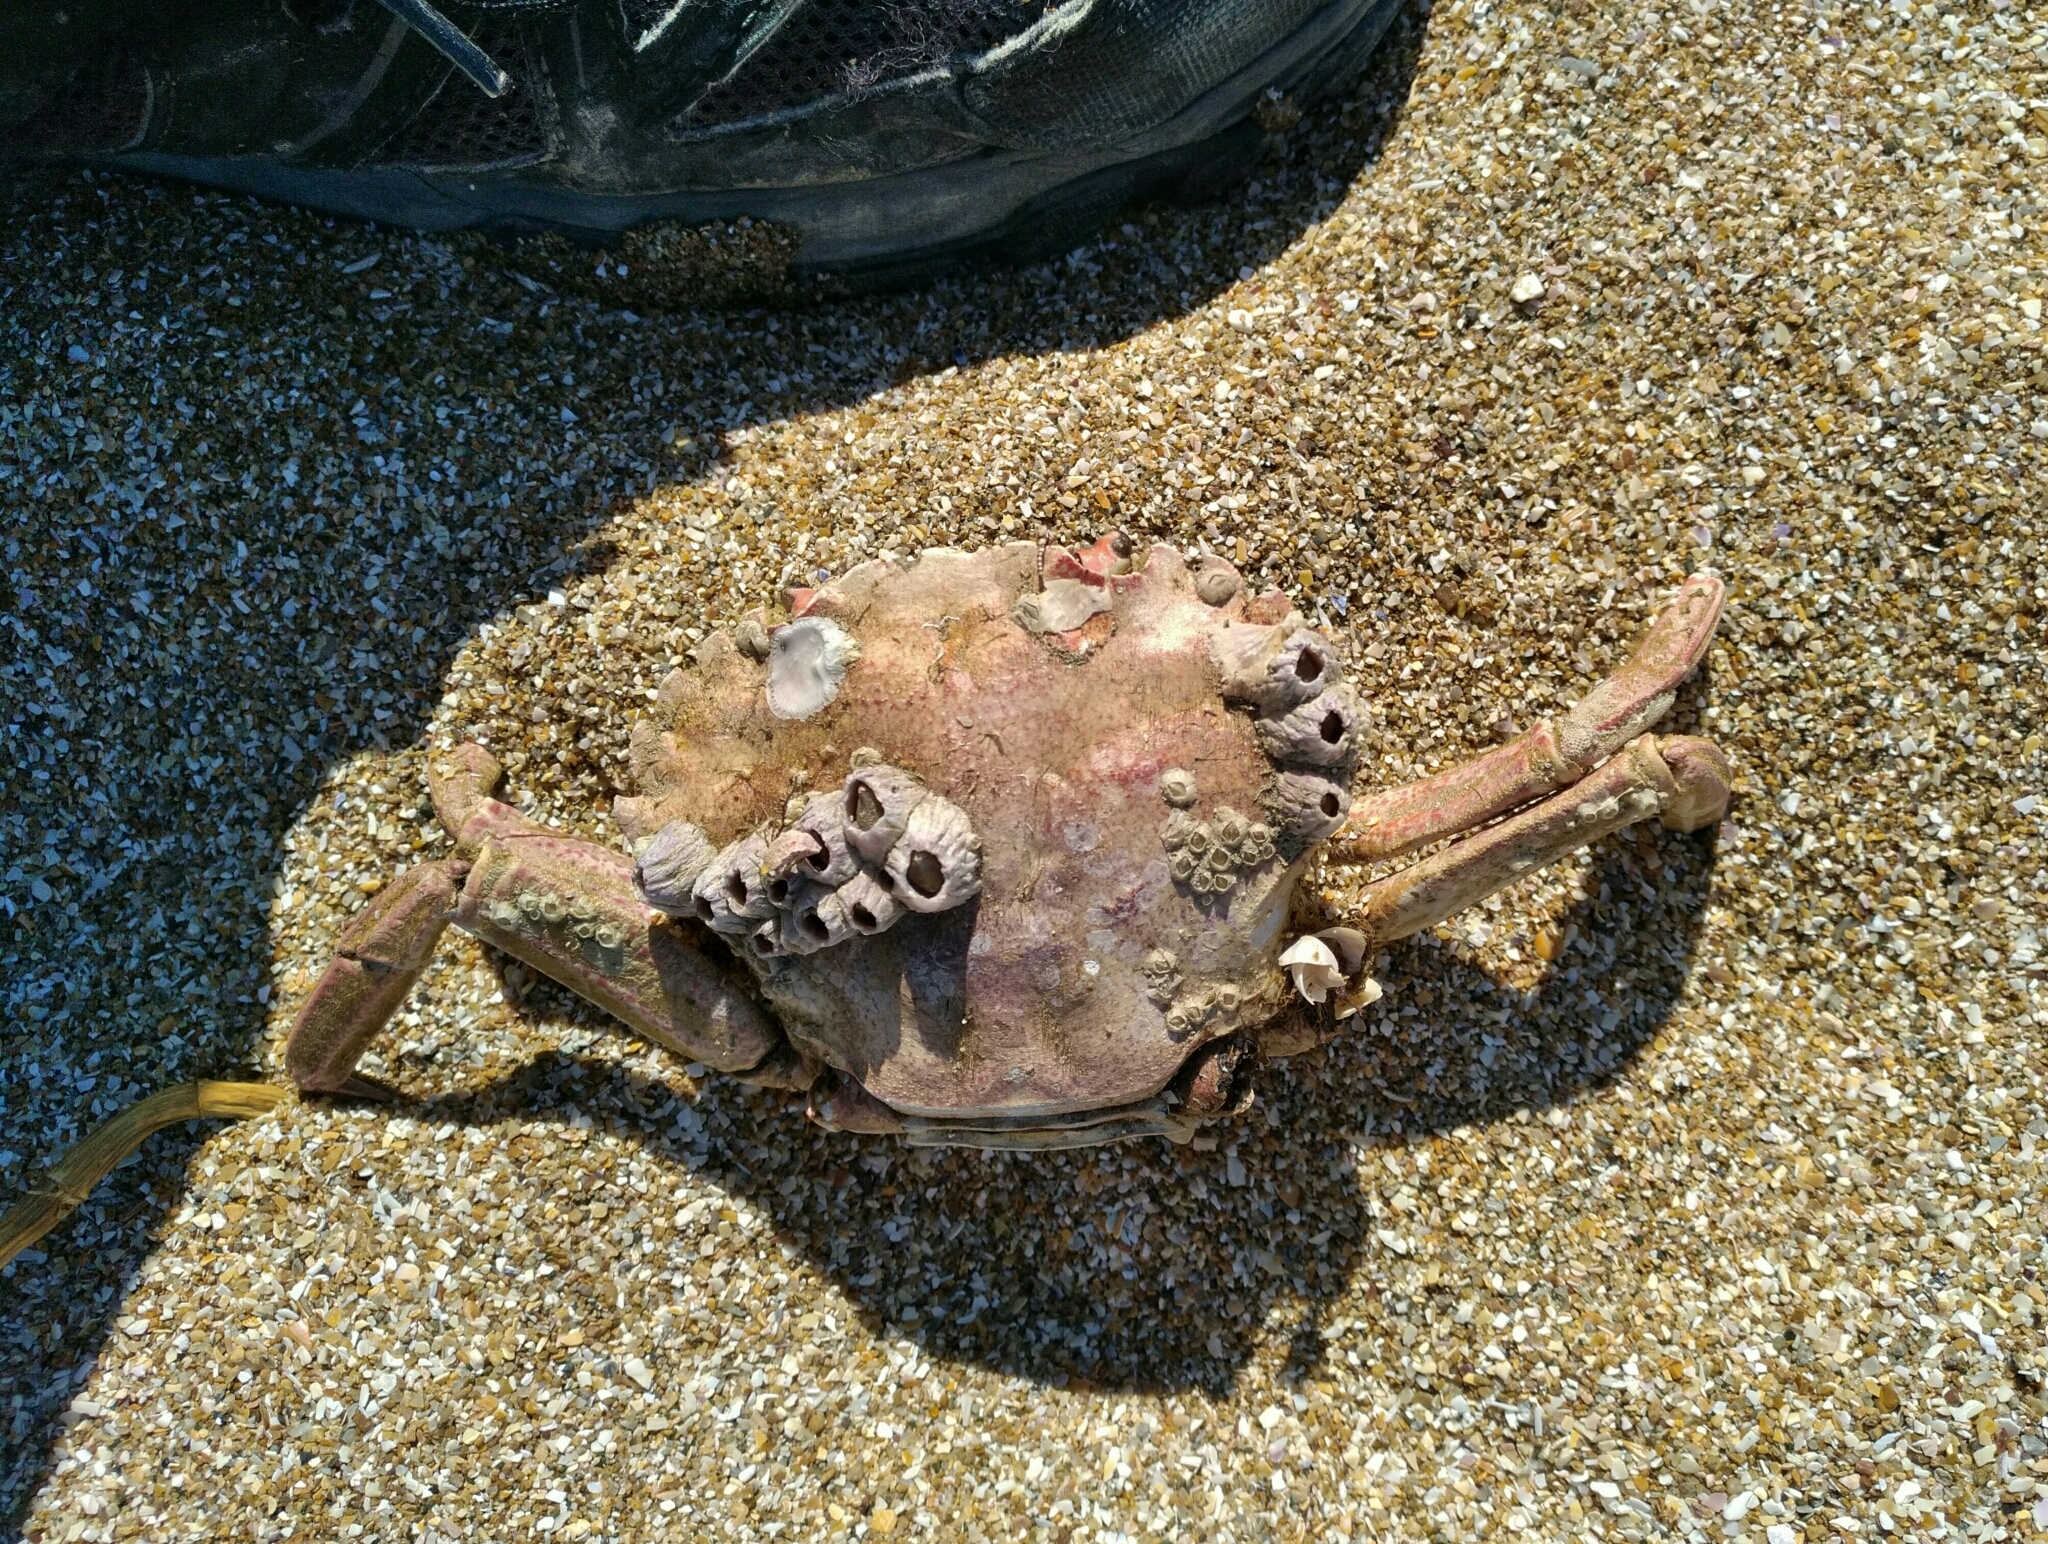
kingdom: Animalia
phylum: Arthropoda
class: Malacostraca
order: Decapoda
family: Polybiidae
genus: Necora
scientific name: Necora puber
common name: Velvet swimming crab
